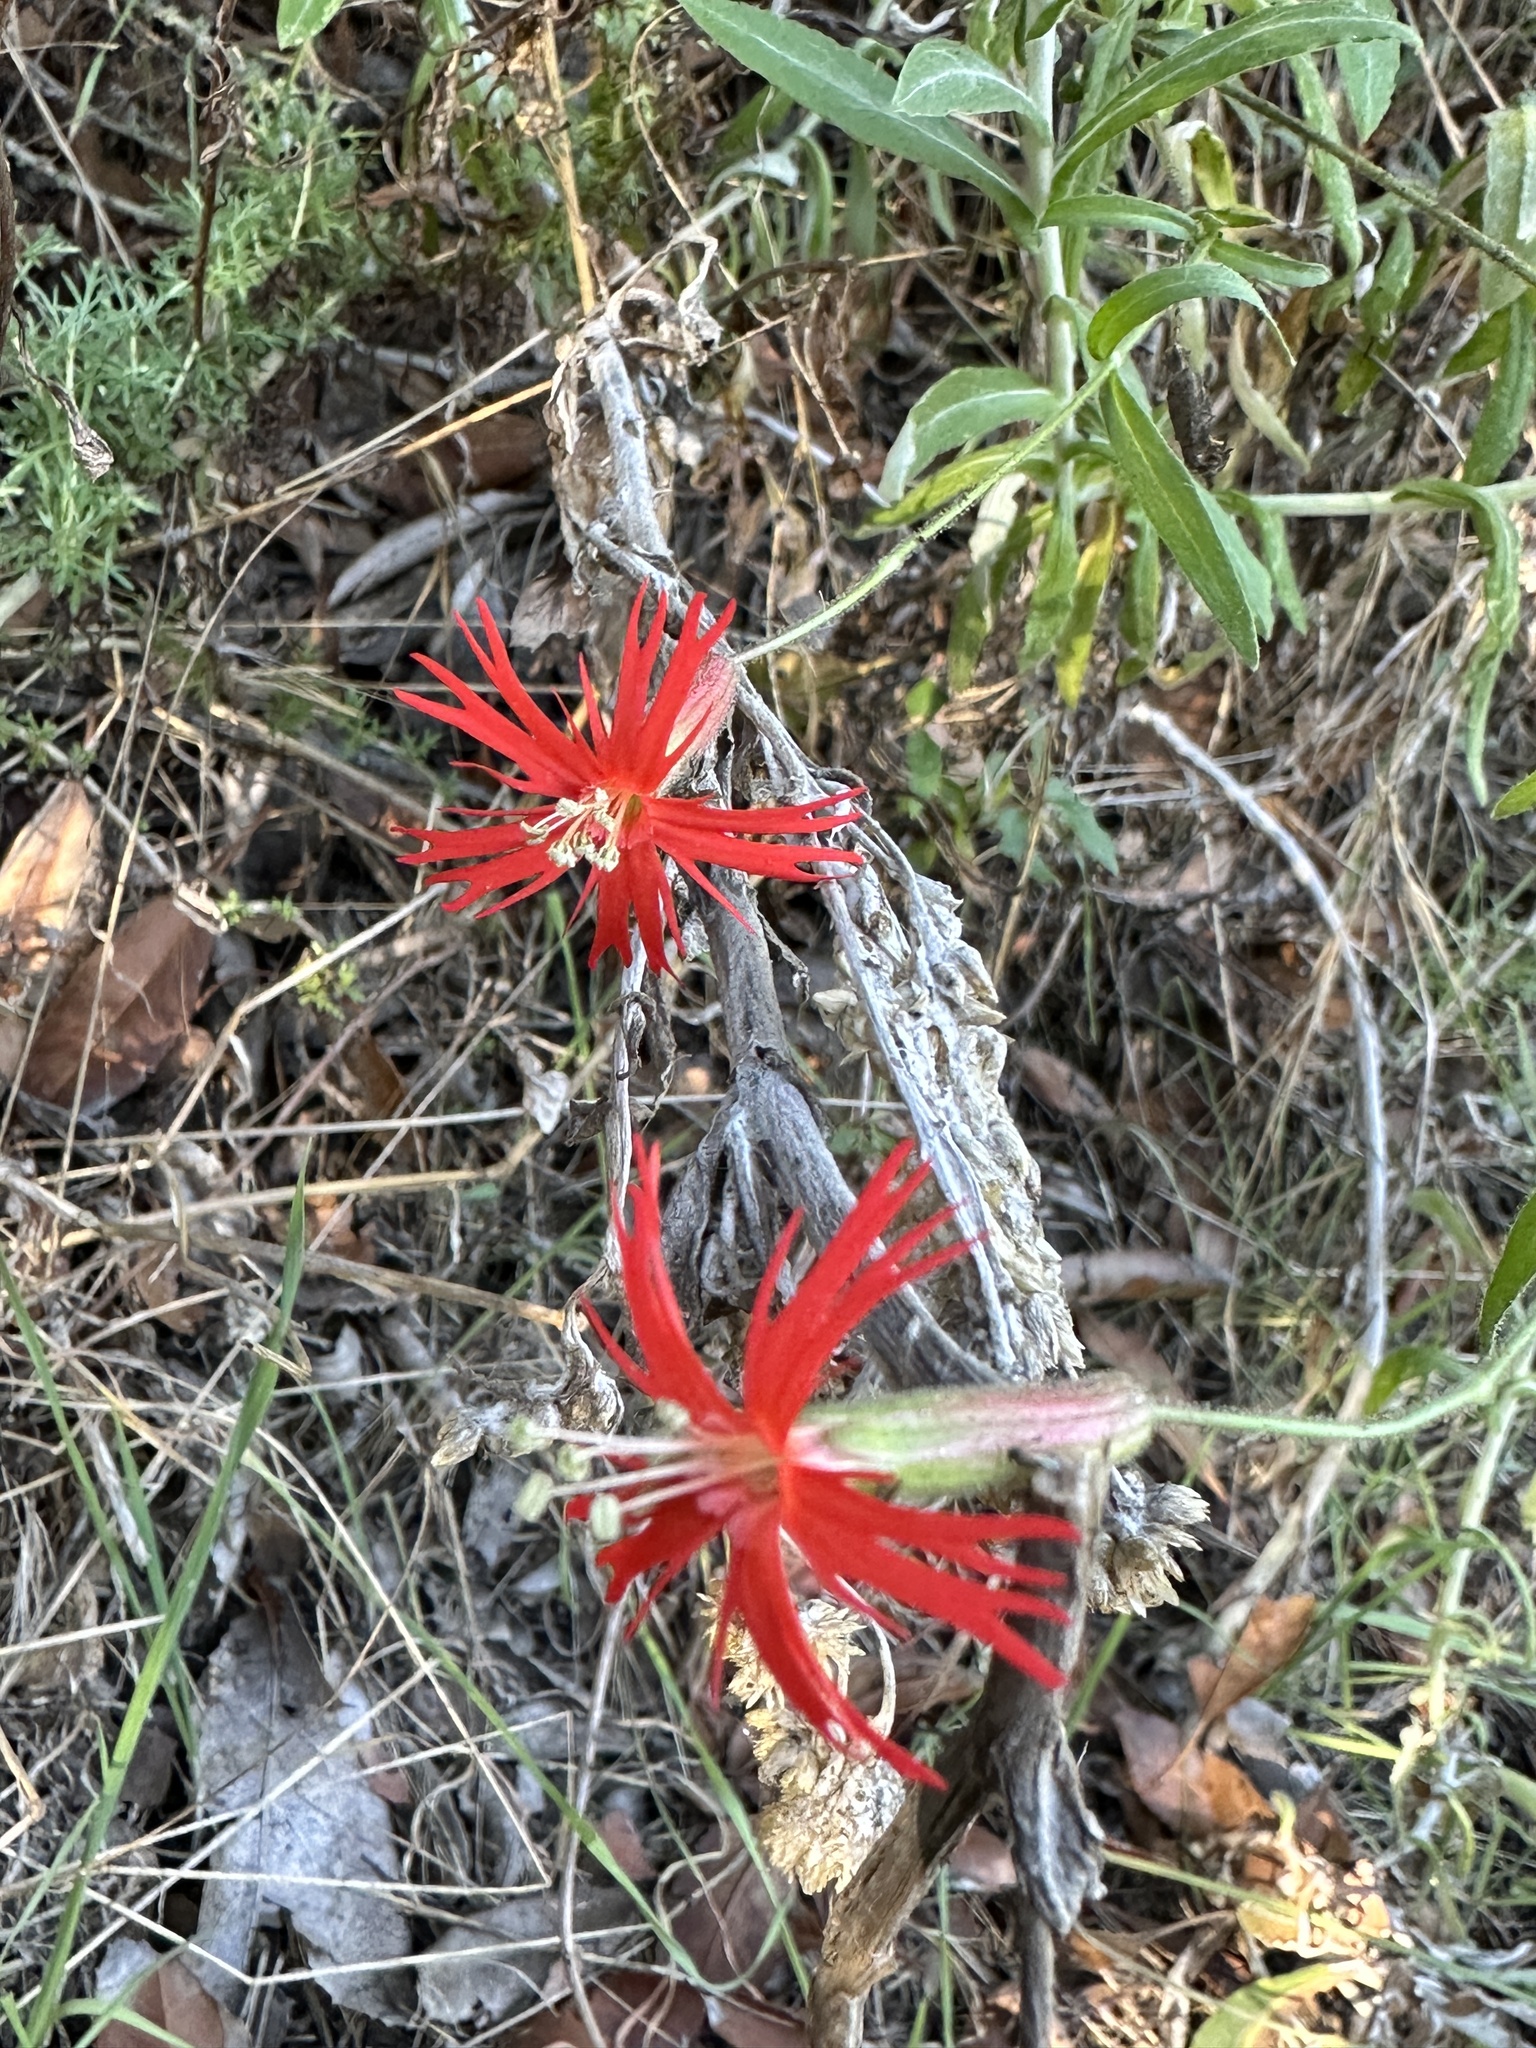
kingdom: Plantae
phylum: Tracheophyta
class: Magnoliopsida
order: Caryophyllales
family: Caryophyllaceae
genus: Silene
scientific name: Silene laciniata
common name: Indian-pink
